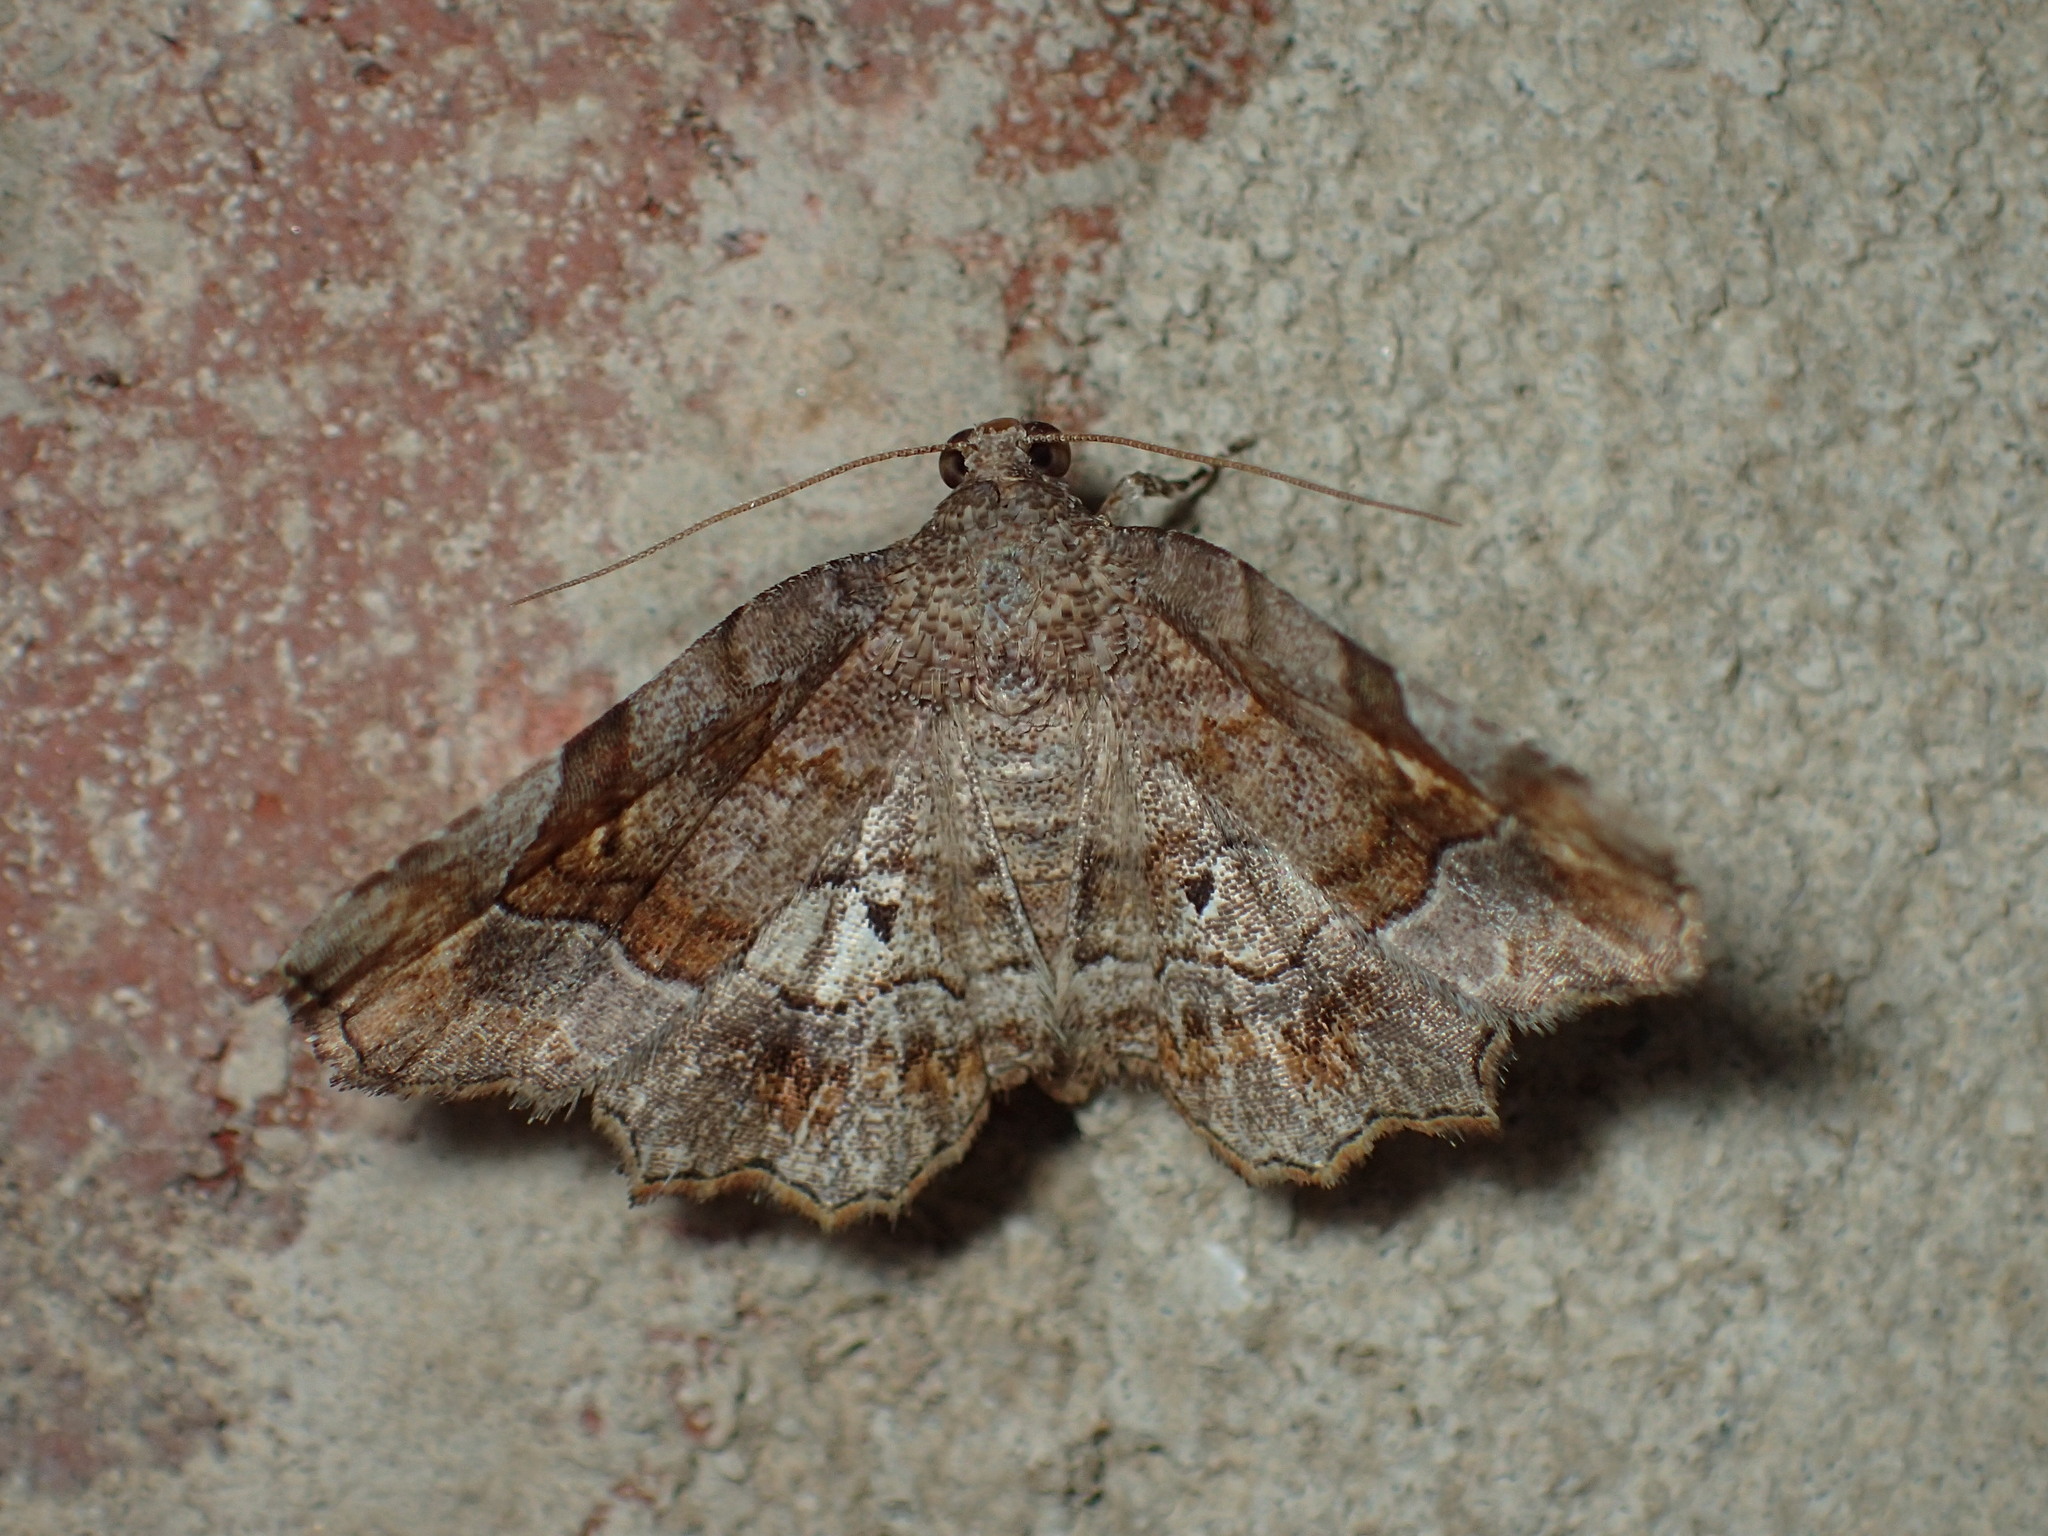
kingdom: Animalia
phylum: Arthropoda
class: Insecta
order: Lepidoptera
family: Erebidae
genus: Pangrapta
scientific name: Pangrapta decoralis
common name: Decorated owlet
